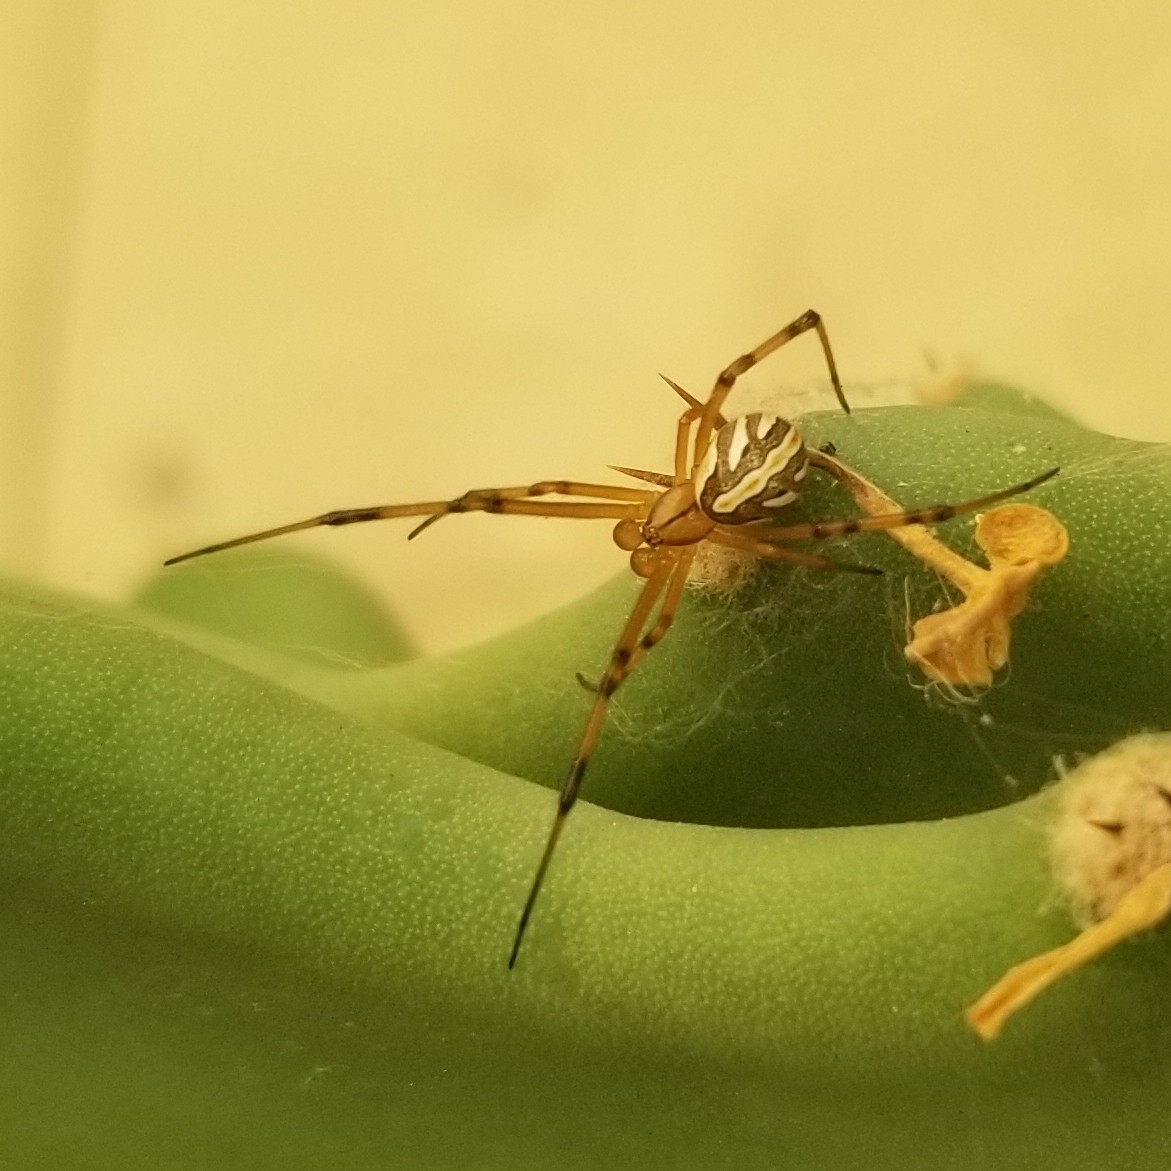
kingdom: Animalia
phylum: Arthropoda
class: Arachnida
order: Araneae
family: Theridiidae
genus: Latrodectus
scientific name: Latrodectus hesperus
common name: Western black widow
